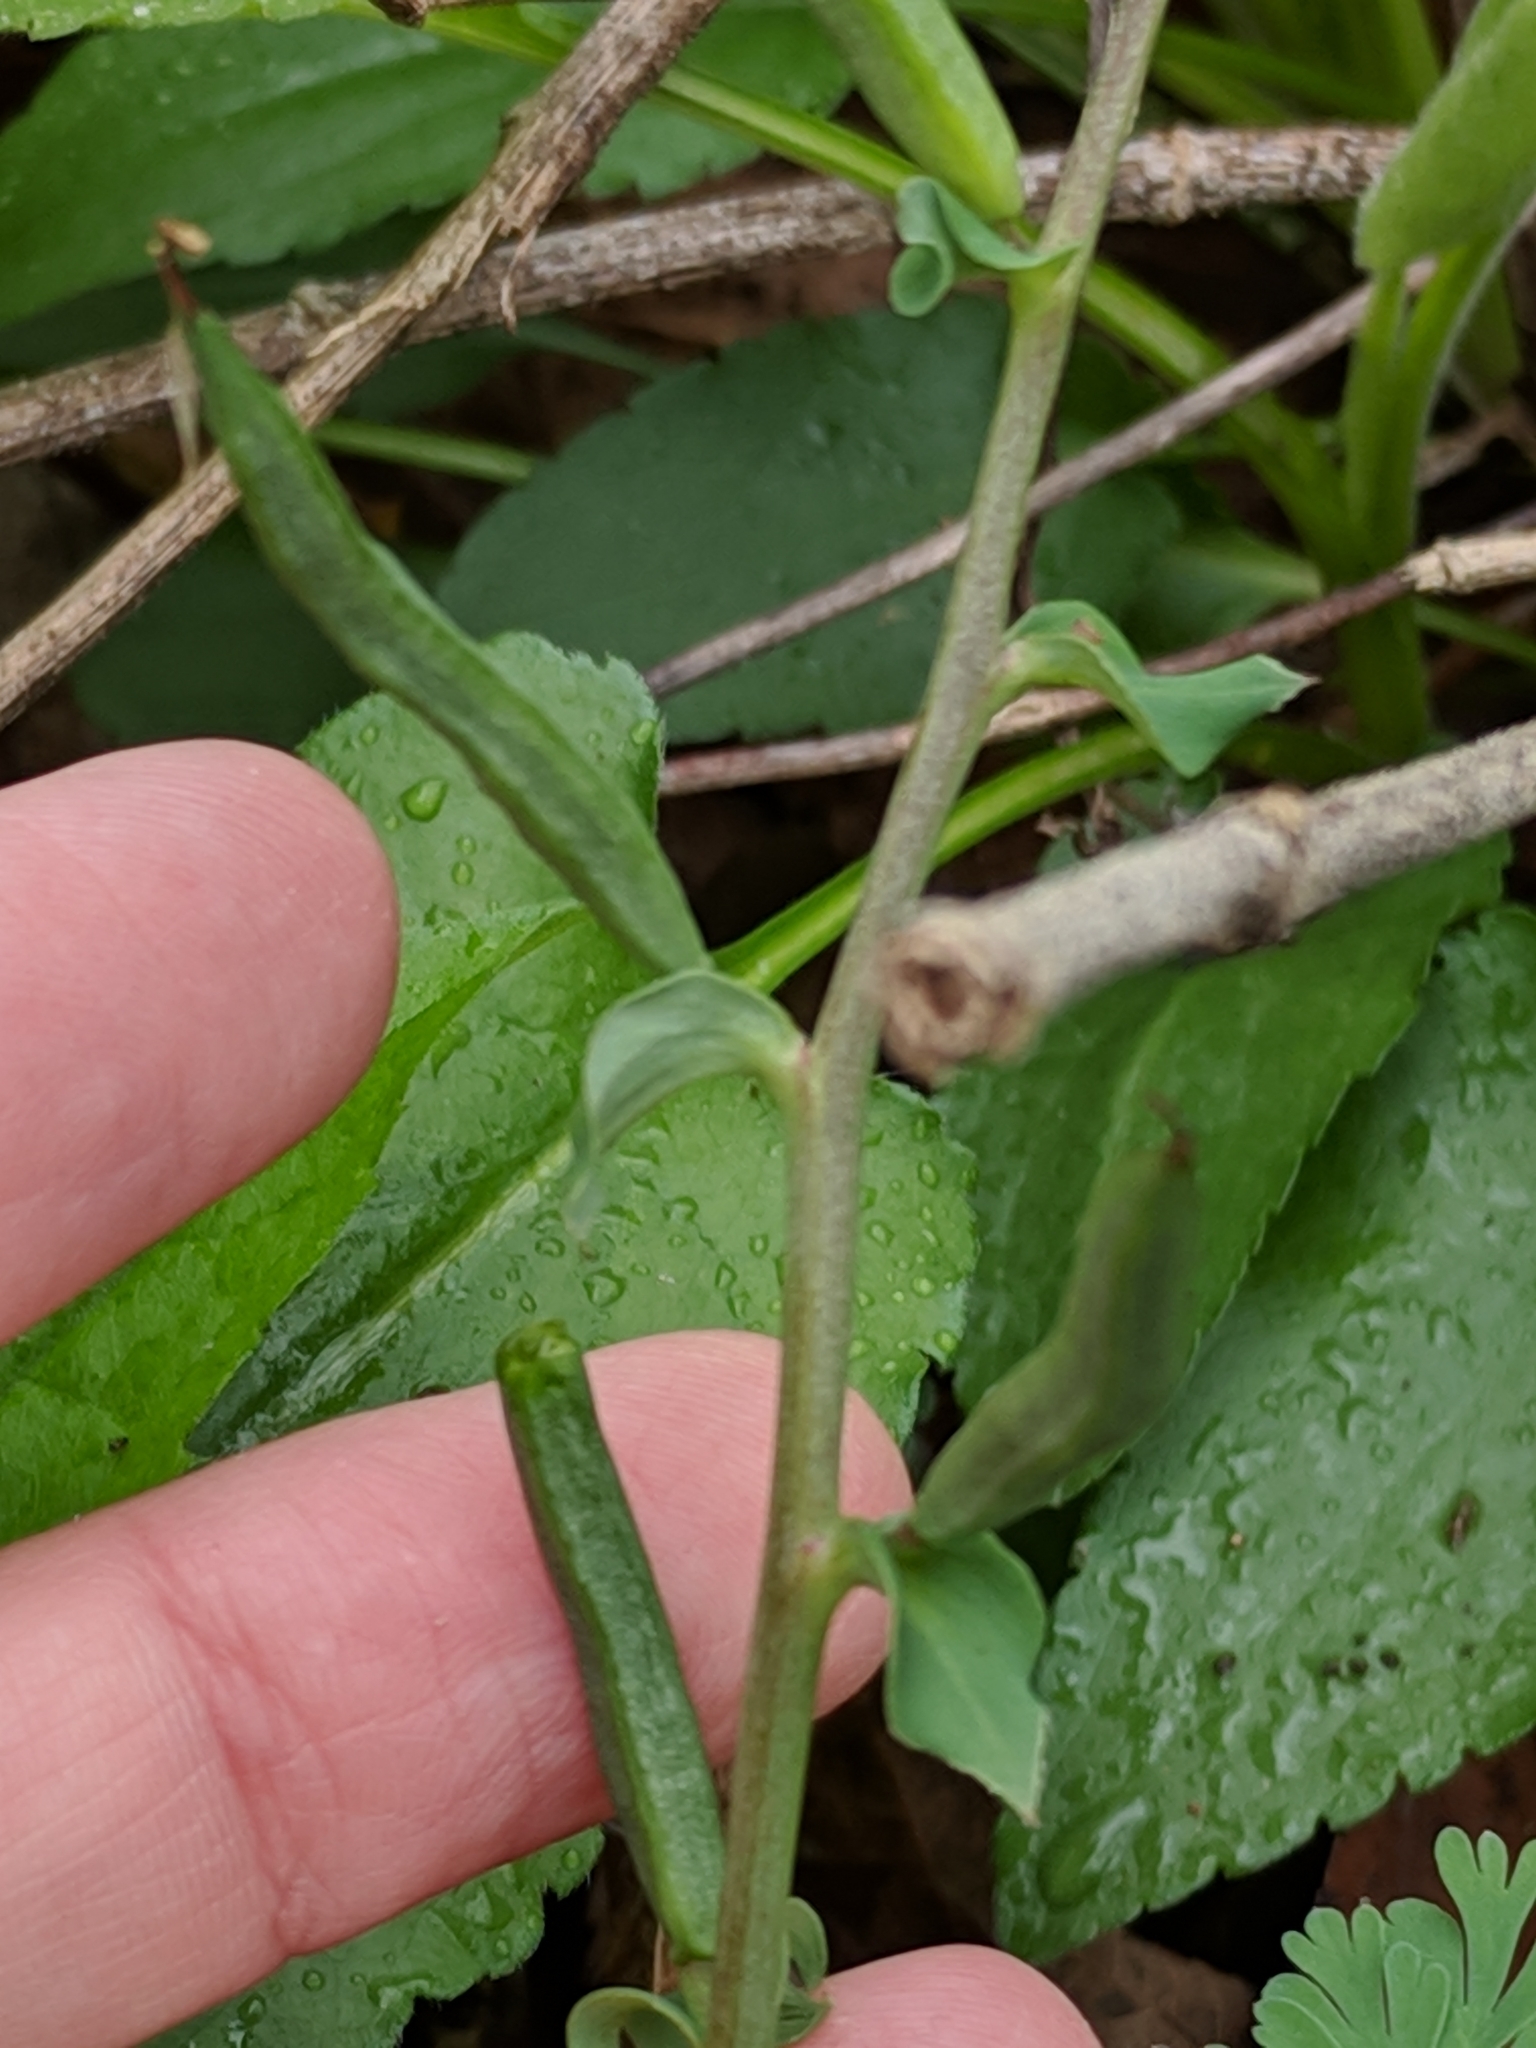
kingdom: Plantae
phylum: Tracheophyta
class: Magnoliopsida
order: Ranunculales
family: Papaveraceae
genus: Corydalis
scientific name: Corydalis curvisiliqua
